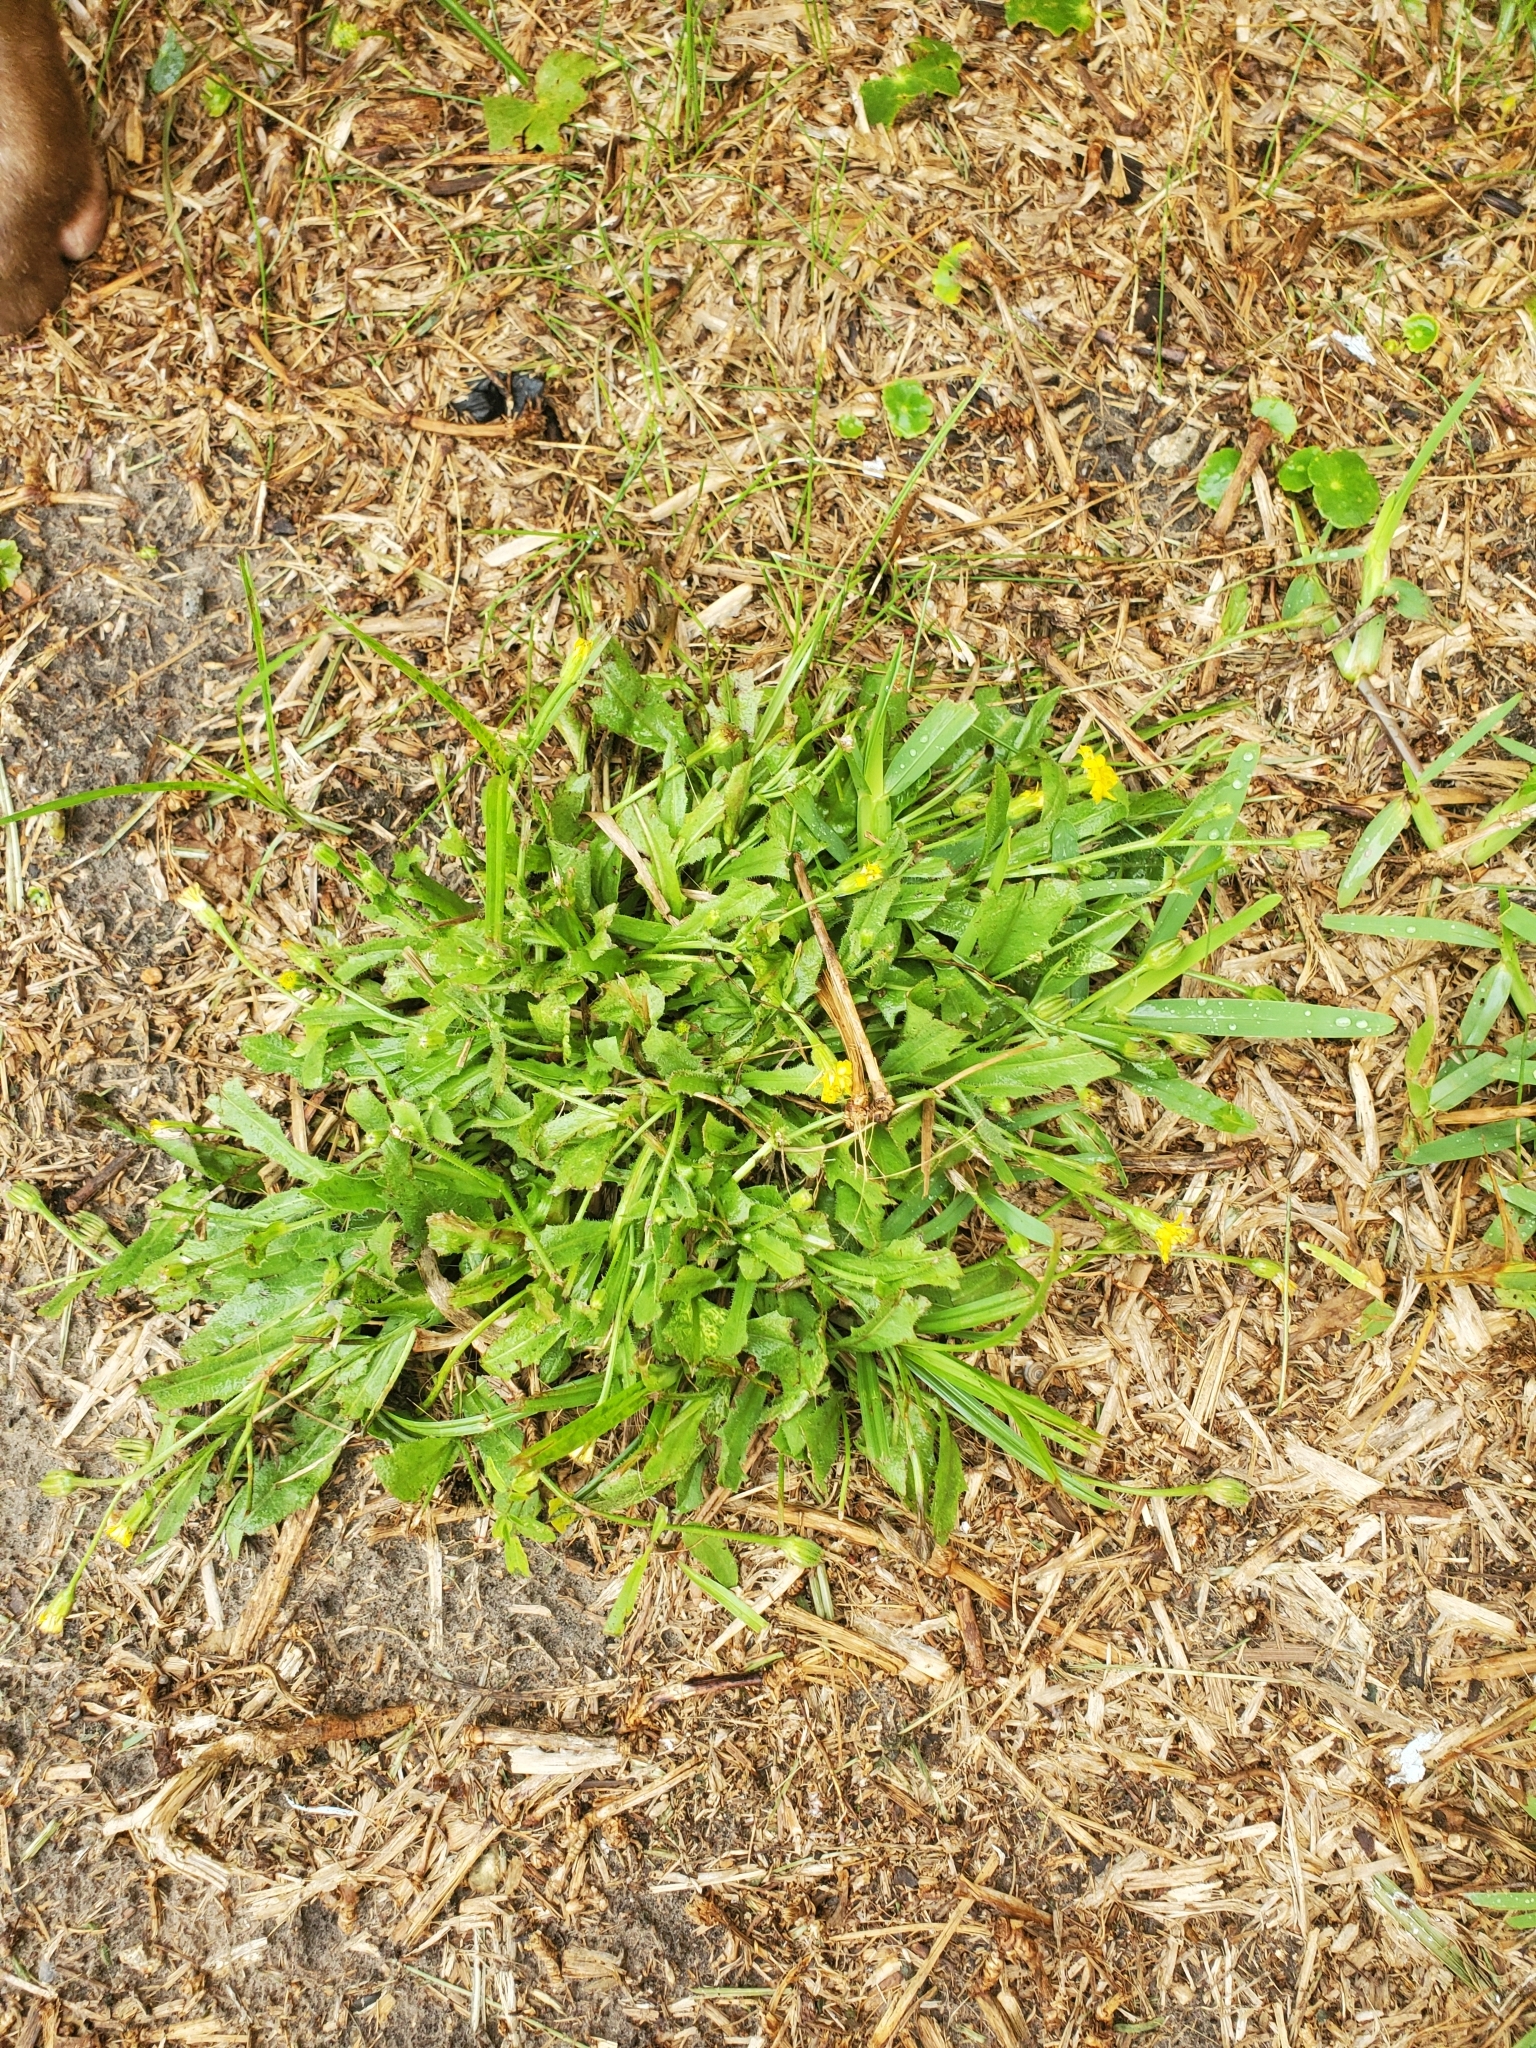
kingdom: Plantae
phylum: Tracheophyta
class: Magnoliopsida
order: Asterales
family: Asteraceae
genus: Hedypnois
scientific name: Hedypnois rhagadioloides
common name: Cretan weed
